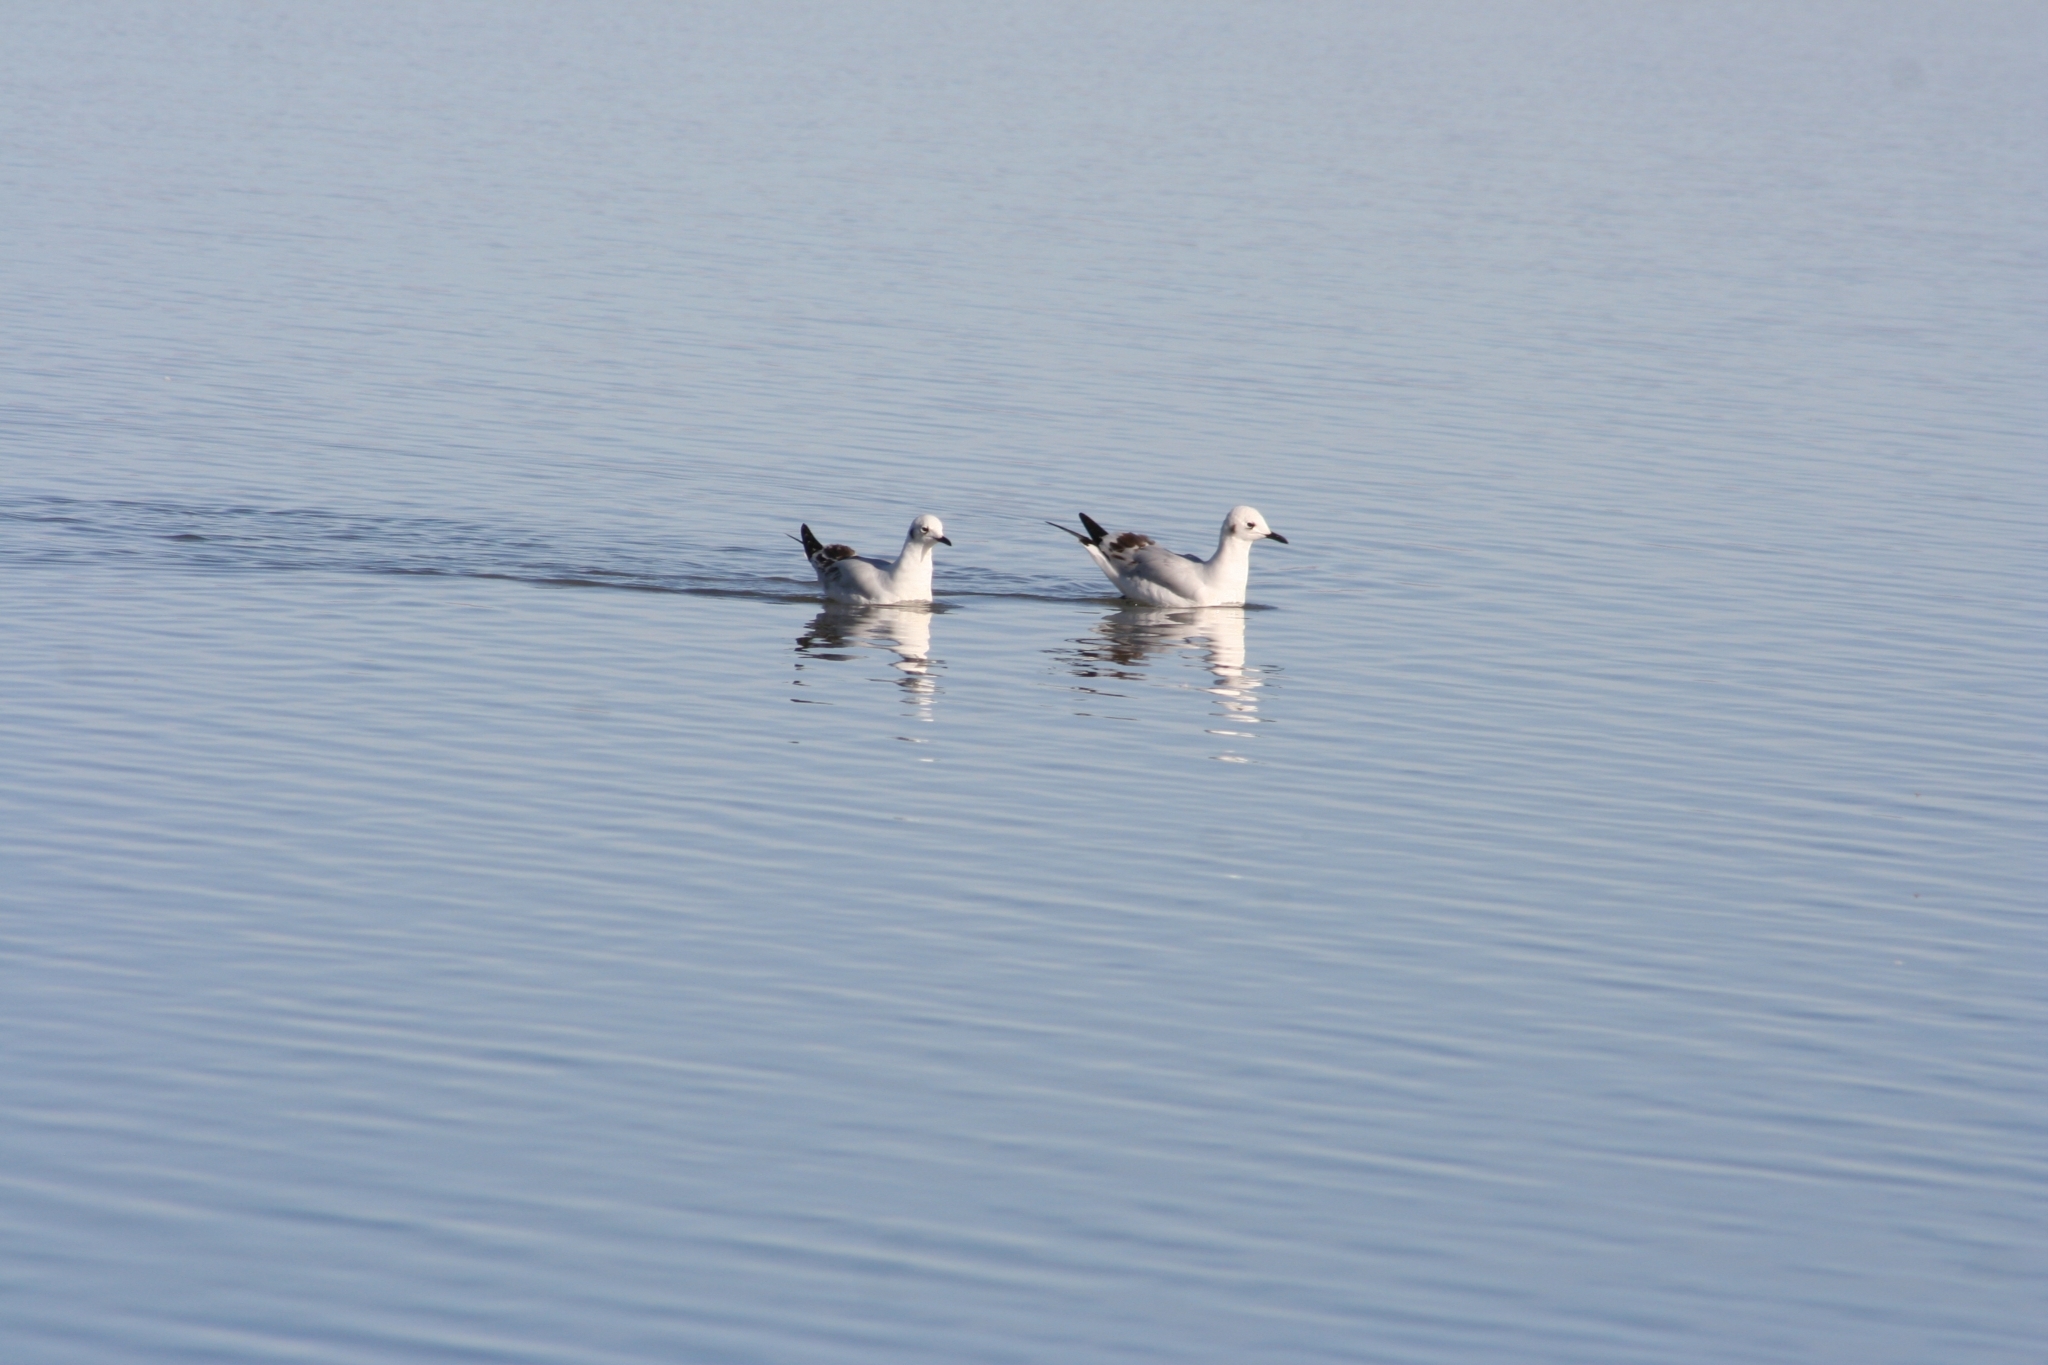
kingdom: Animalia
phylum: Chordata
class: Aves
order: Charadriiformes
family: Laridae
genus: Chroicocephalus
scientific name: Chroicocephalus serranus
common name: Andean gull
